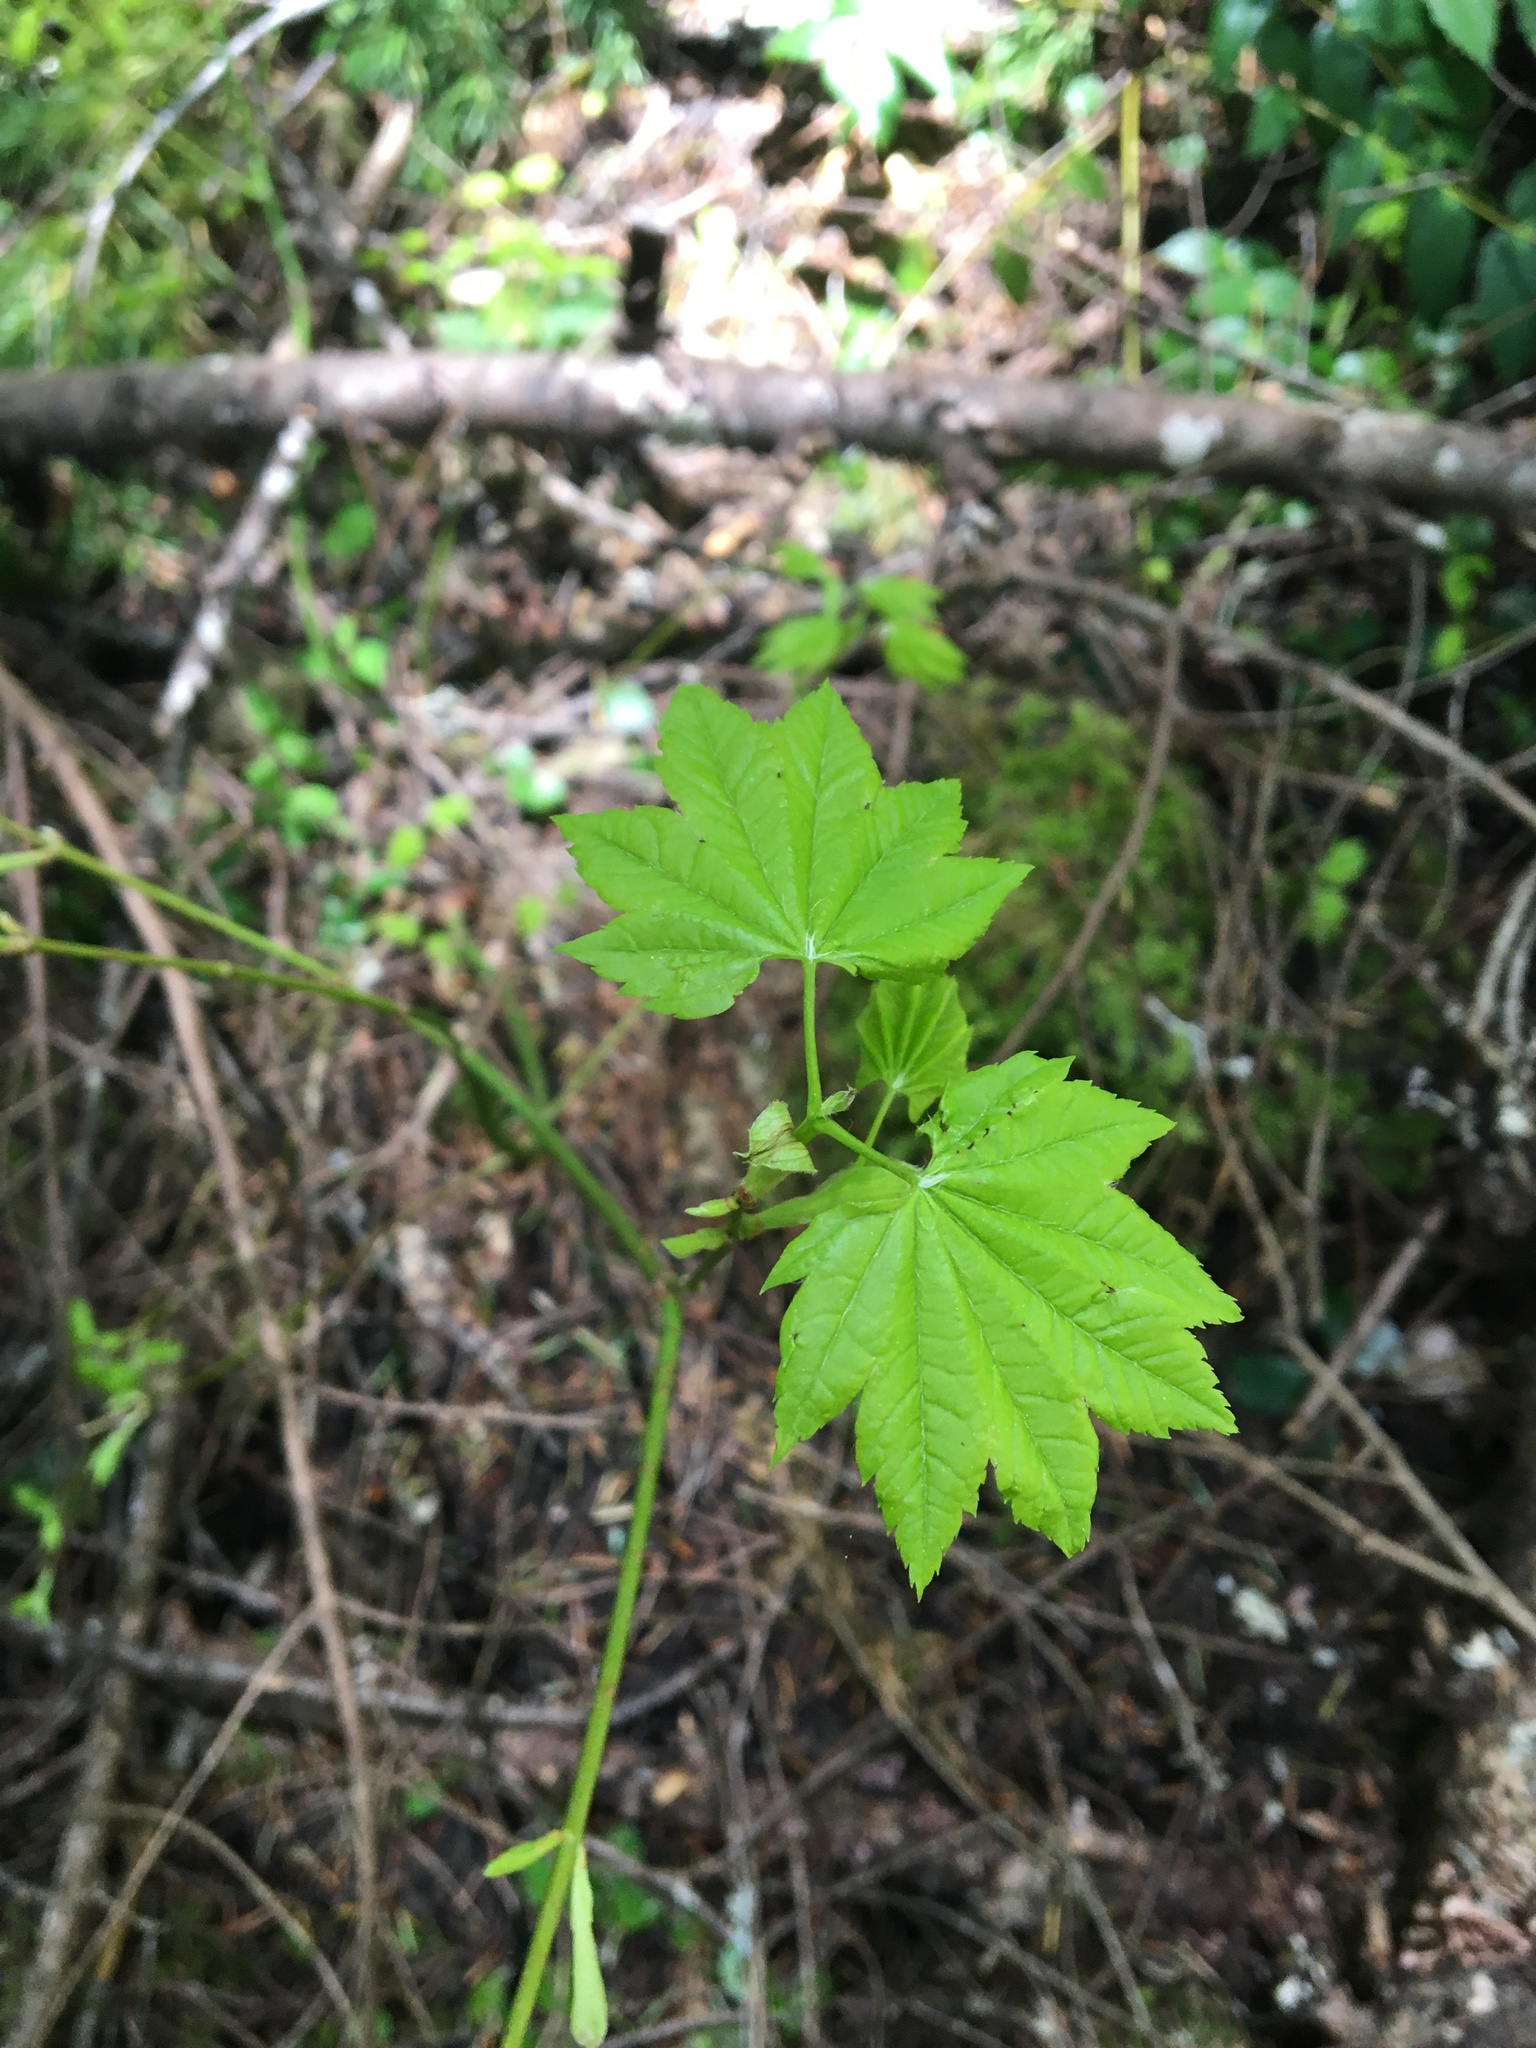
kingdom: Plantae
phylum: Tracheophyta
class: Magnoliopsida
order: Sapindales
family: Sapindaceae
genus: Acer
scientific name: Acer circinatum
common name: Vine maple
